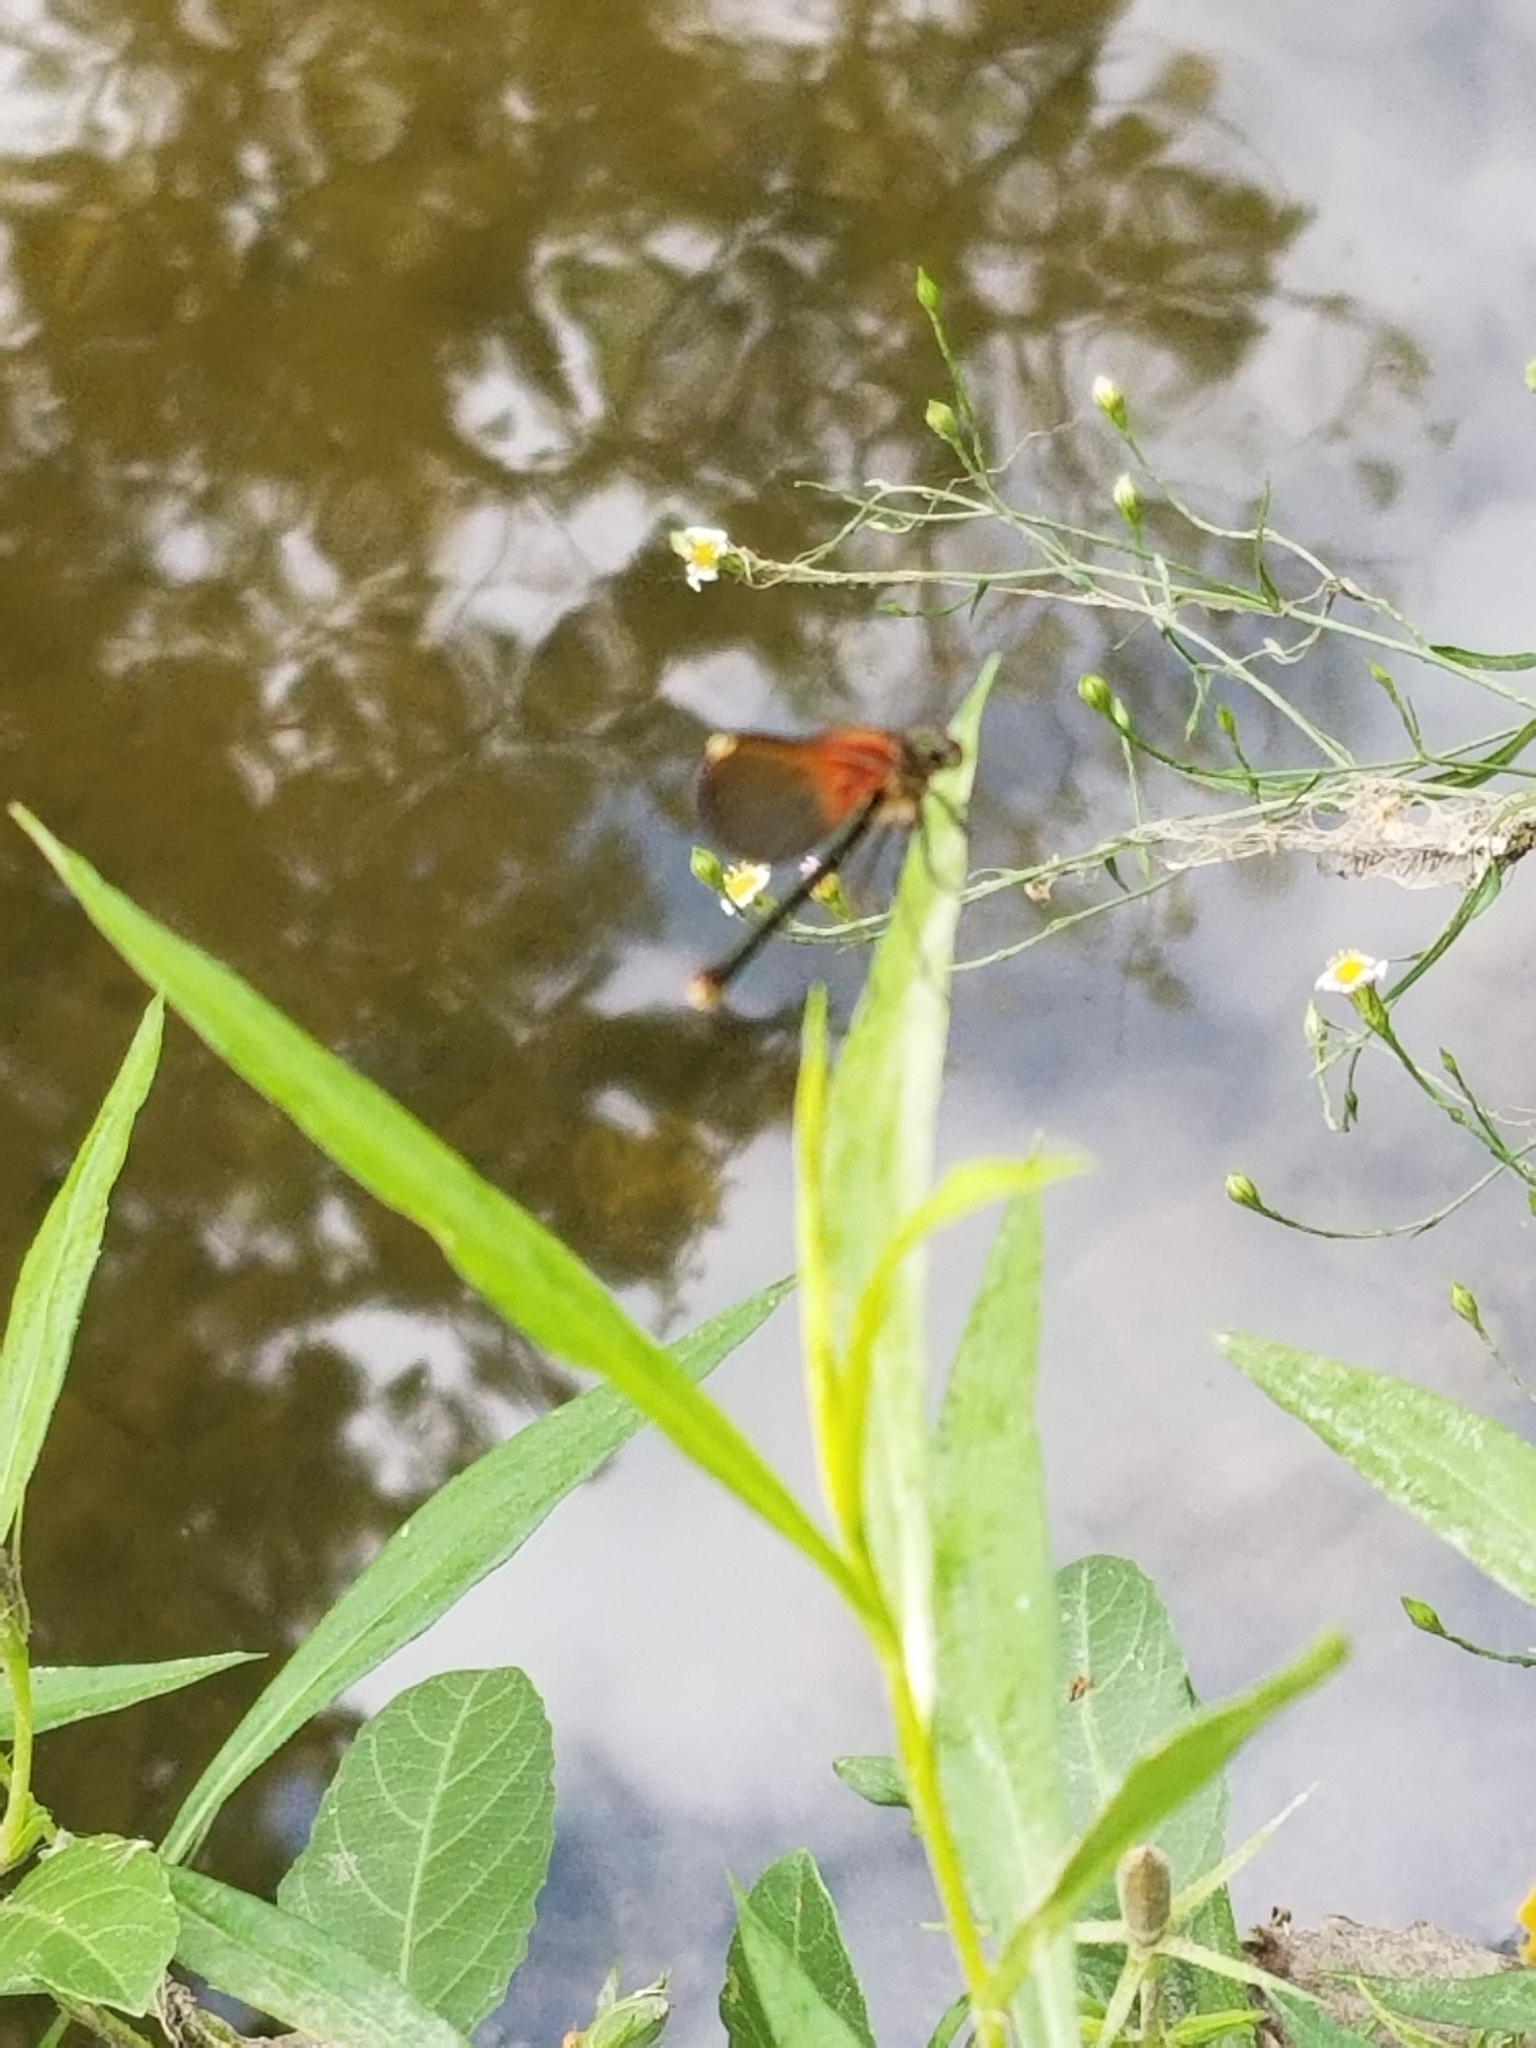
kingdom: Animalia
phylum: Arthropoda
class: Insecta
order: Odonata
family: Calopterygidae
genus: Hetaerina
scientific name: Hetaerina americana
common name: American rubyspot
